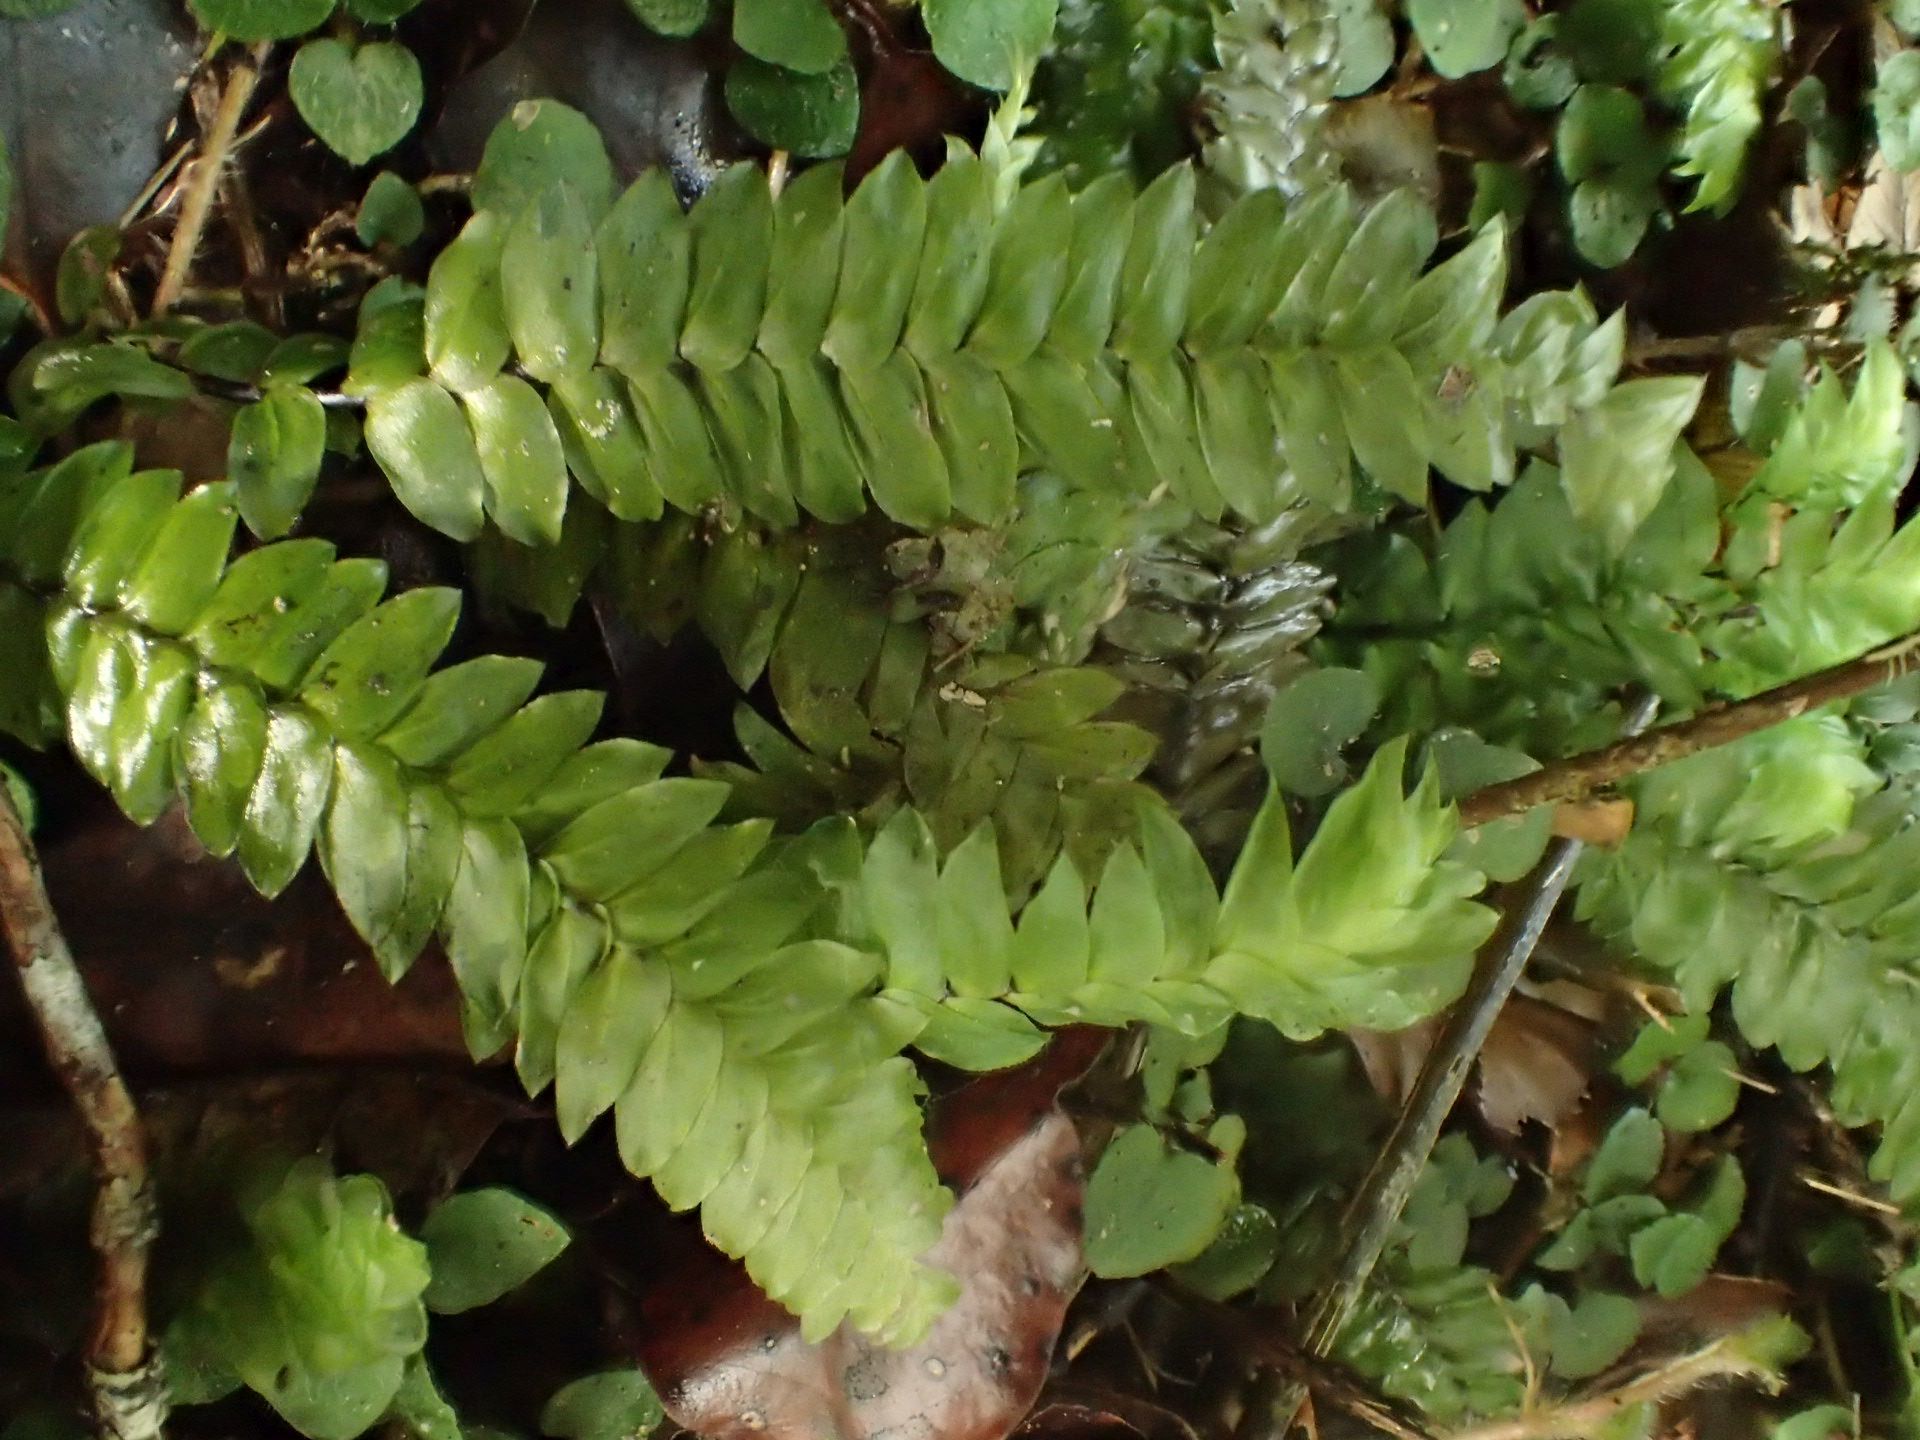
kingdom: Plantae
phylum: Bryophyta
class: Bryopsida
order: Hypopterygiales
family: Hypopterygiaceae
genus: Cyathophorum
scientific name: Cyathophorum bulbosum
